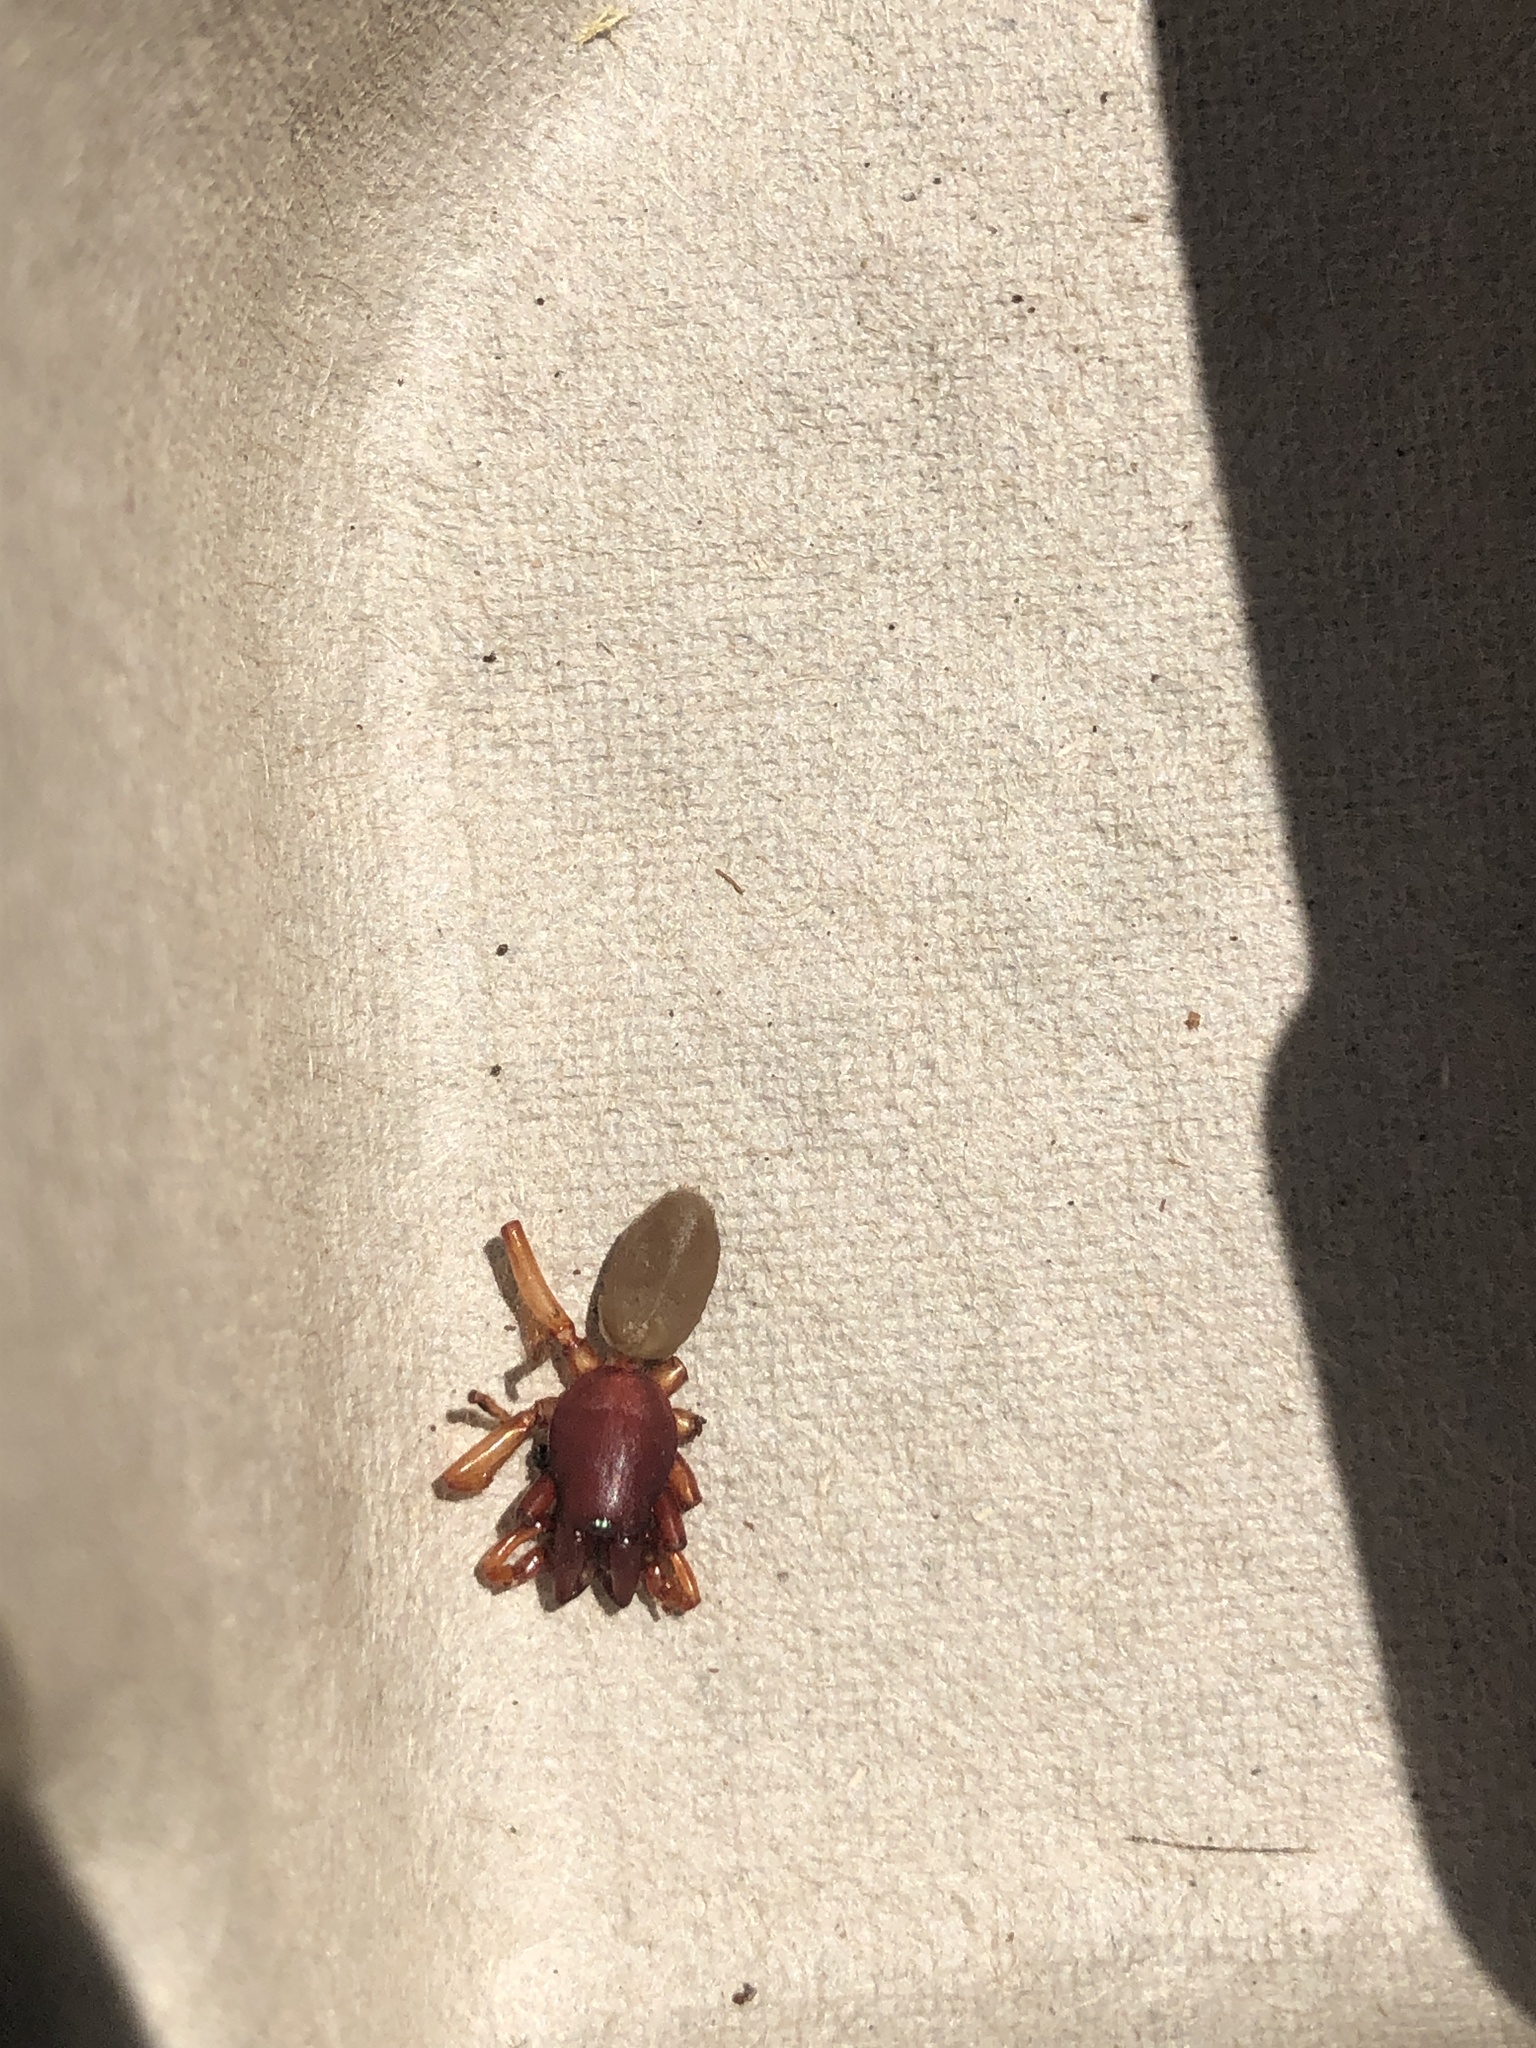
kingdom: Animalia
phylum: Arthropoda
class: Arachnida
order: Araneae
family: Dysderidae
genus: Dysdera
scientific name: Dysdera crocata
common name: Woodlouse spider
